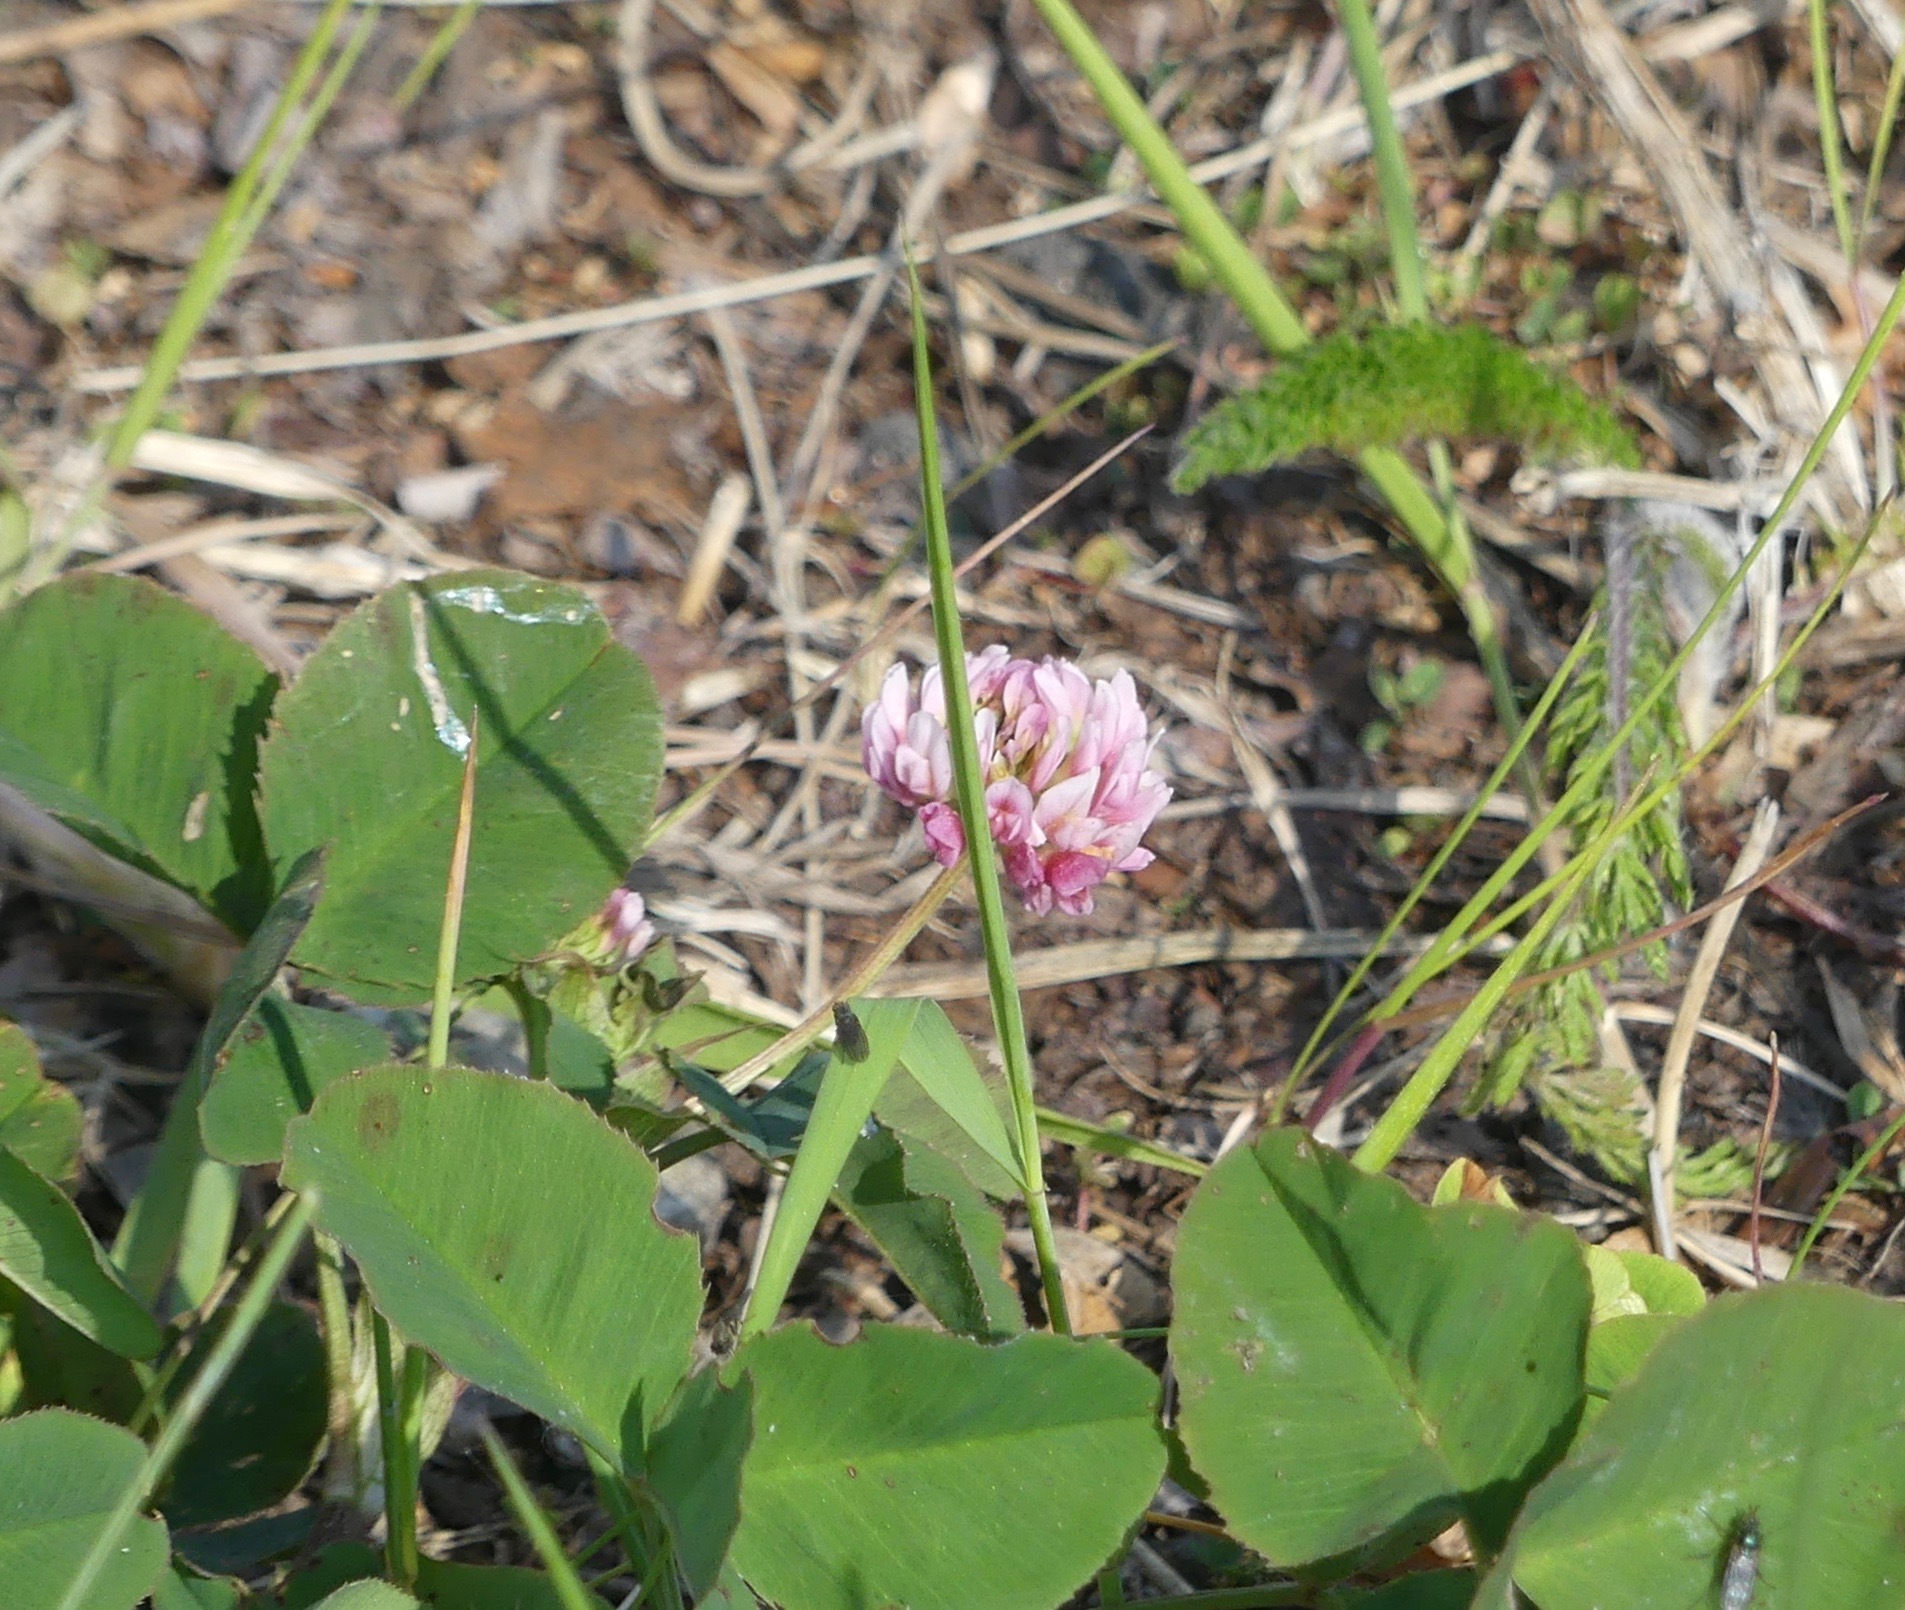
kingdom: Plantae
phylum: Tracheophyta
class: Magnoliopsida
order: Fabales
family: Fabaceae
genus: Trifolium
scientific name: Trifolium hybridum
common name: Alsike clover
